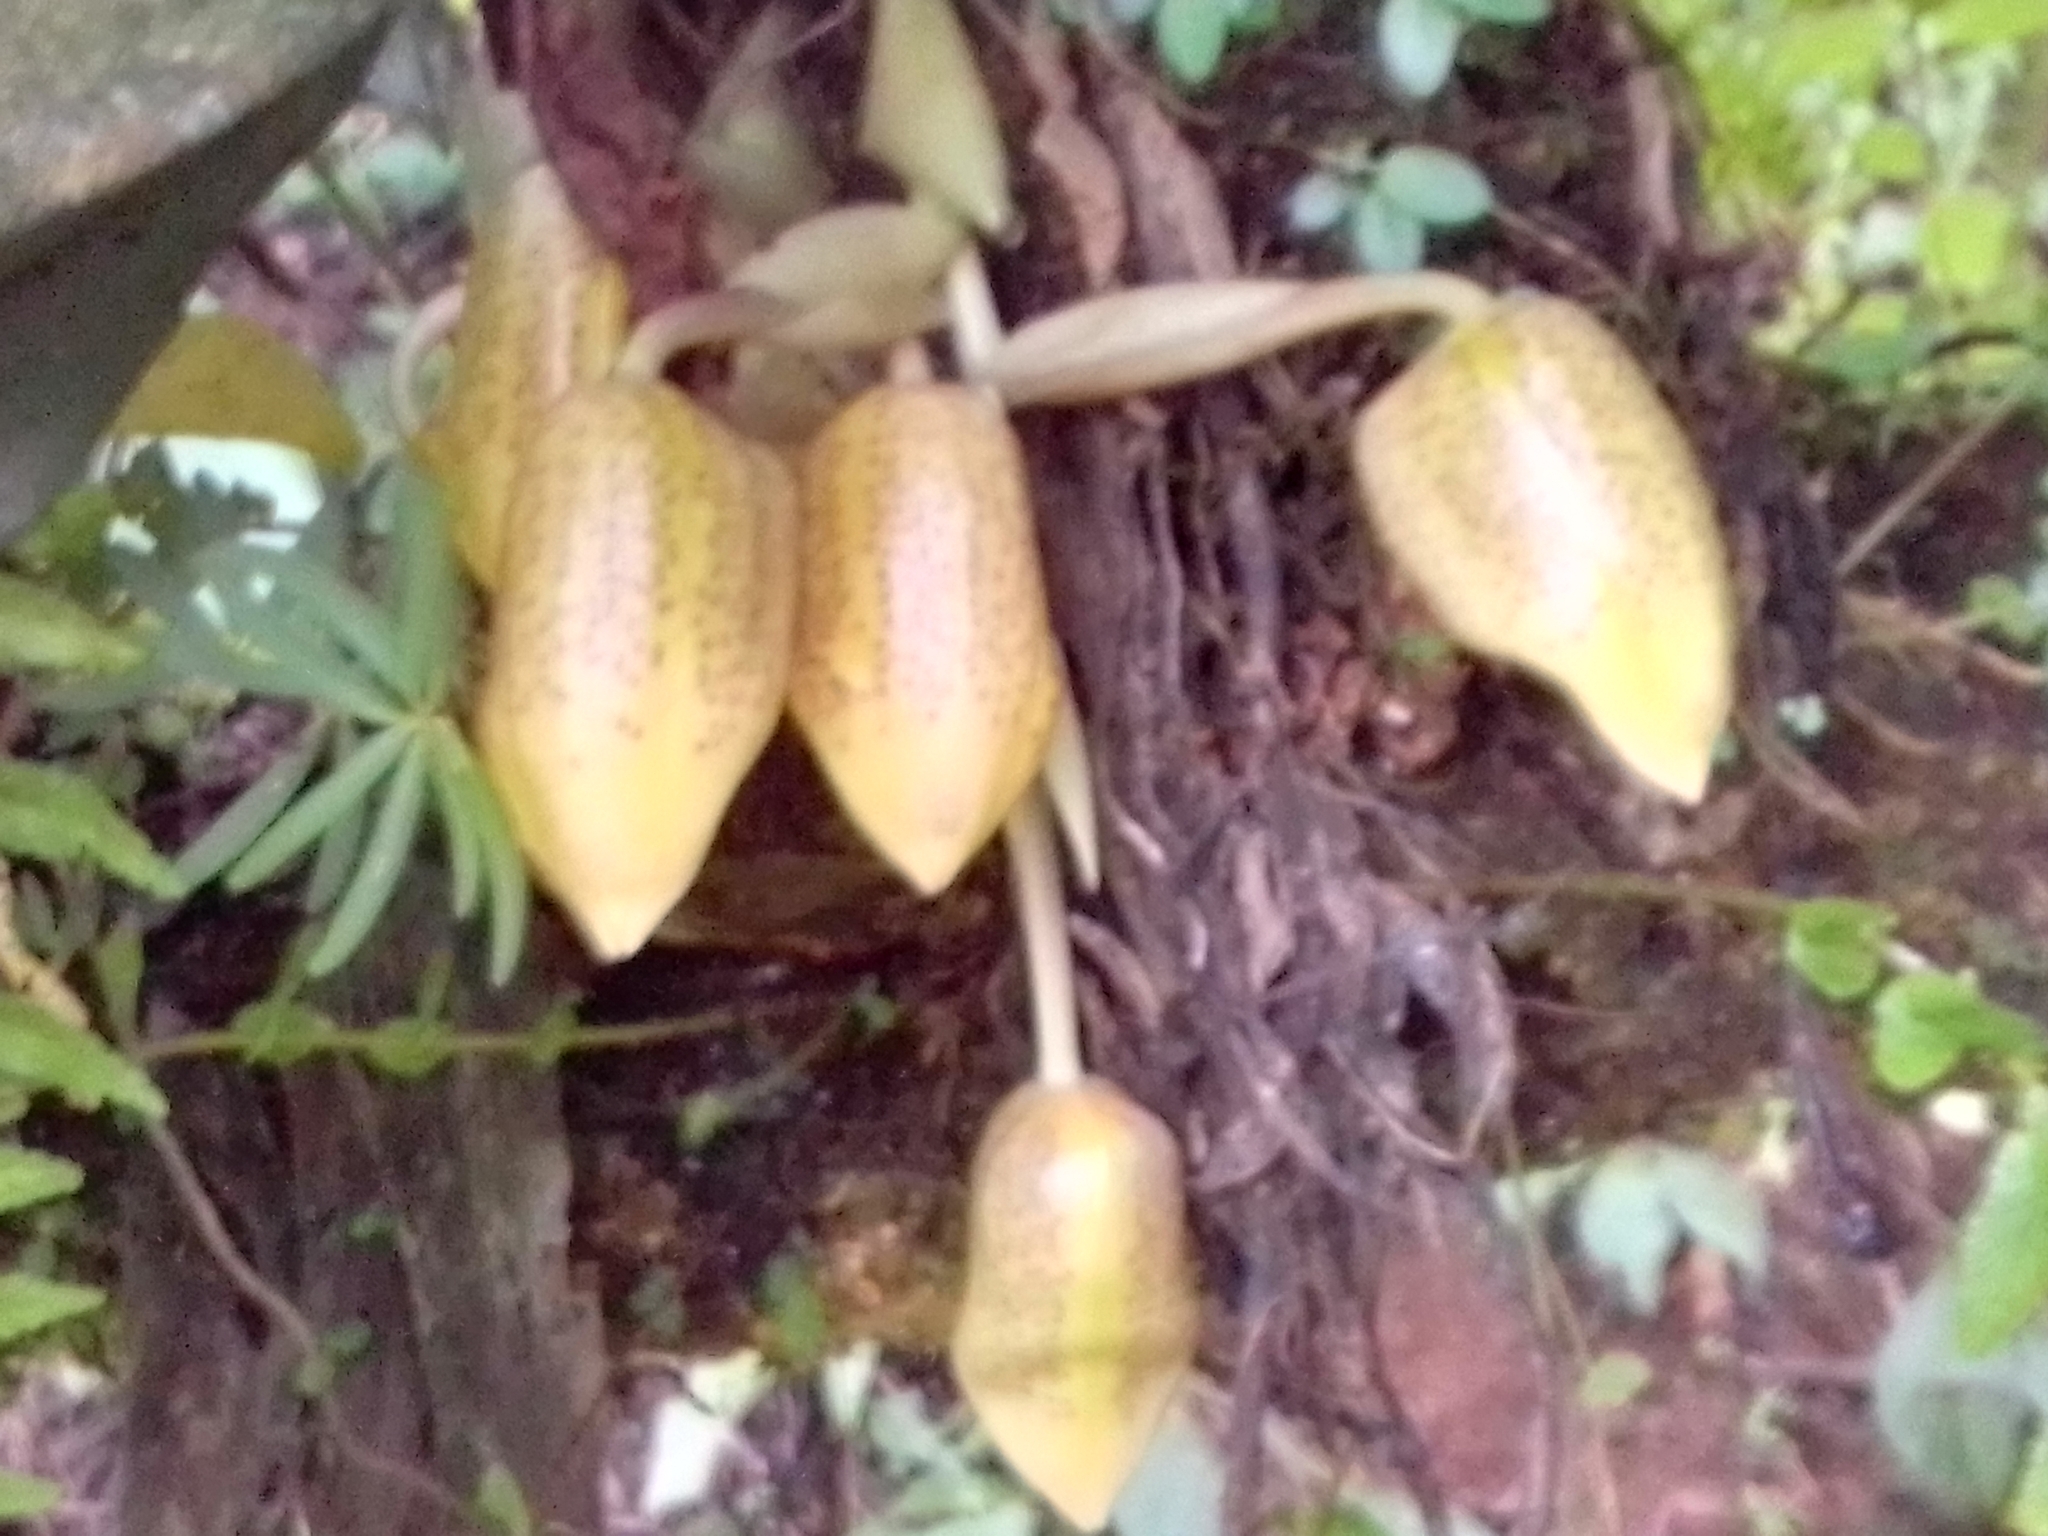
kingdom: Plantae
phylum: Tracheophyta
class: Liliopsida
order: Asparagales
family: Orchidaceae
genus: Stanhopea
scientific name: Stanhopea wardii
